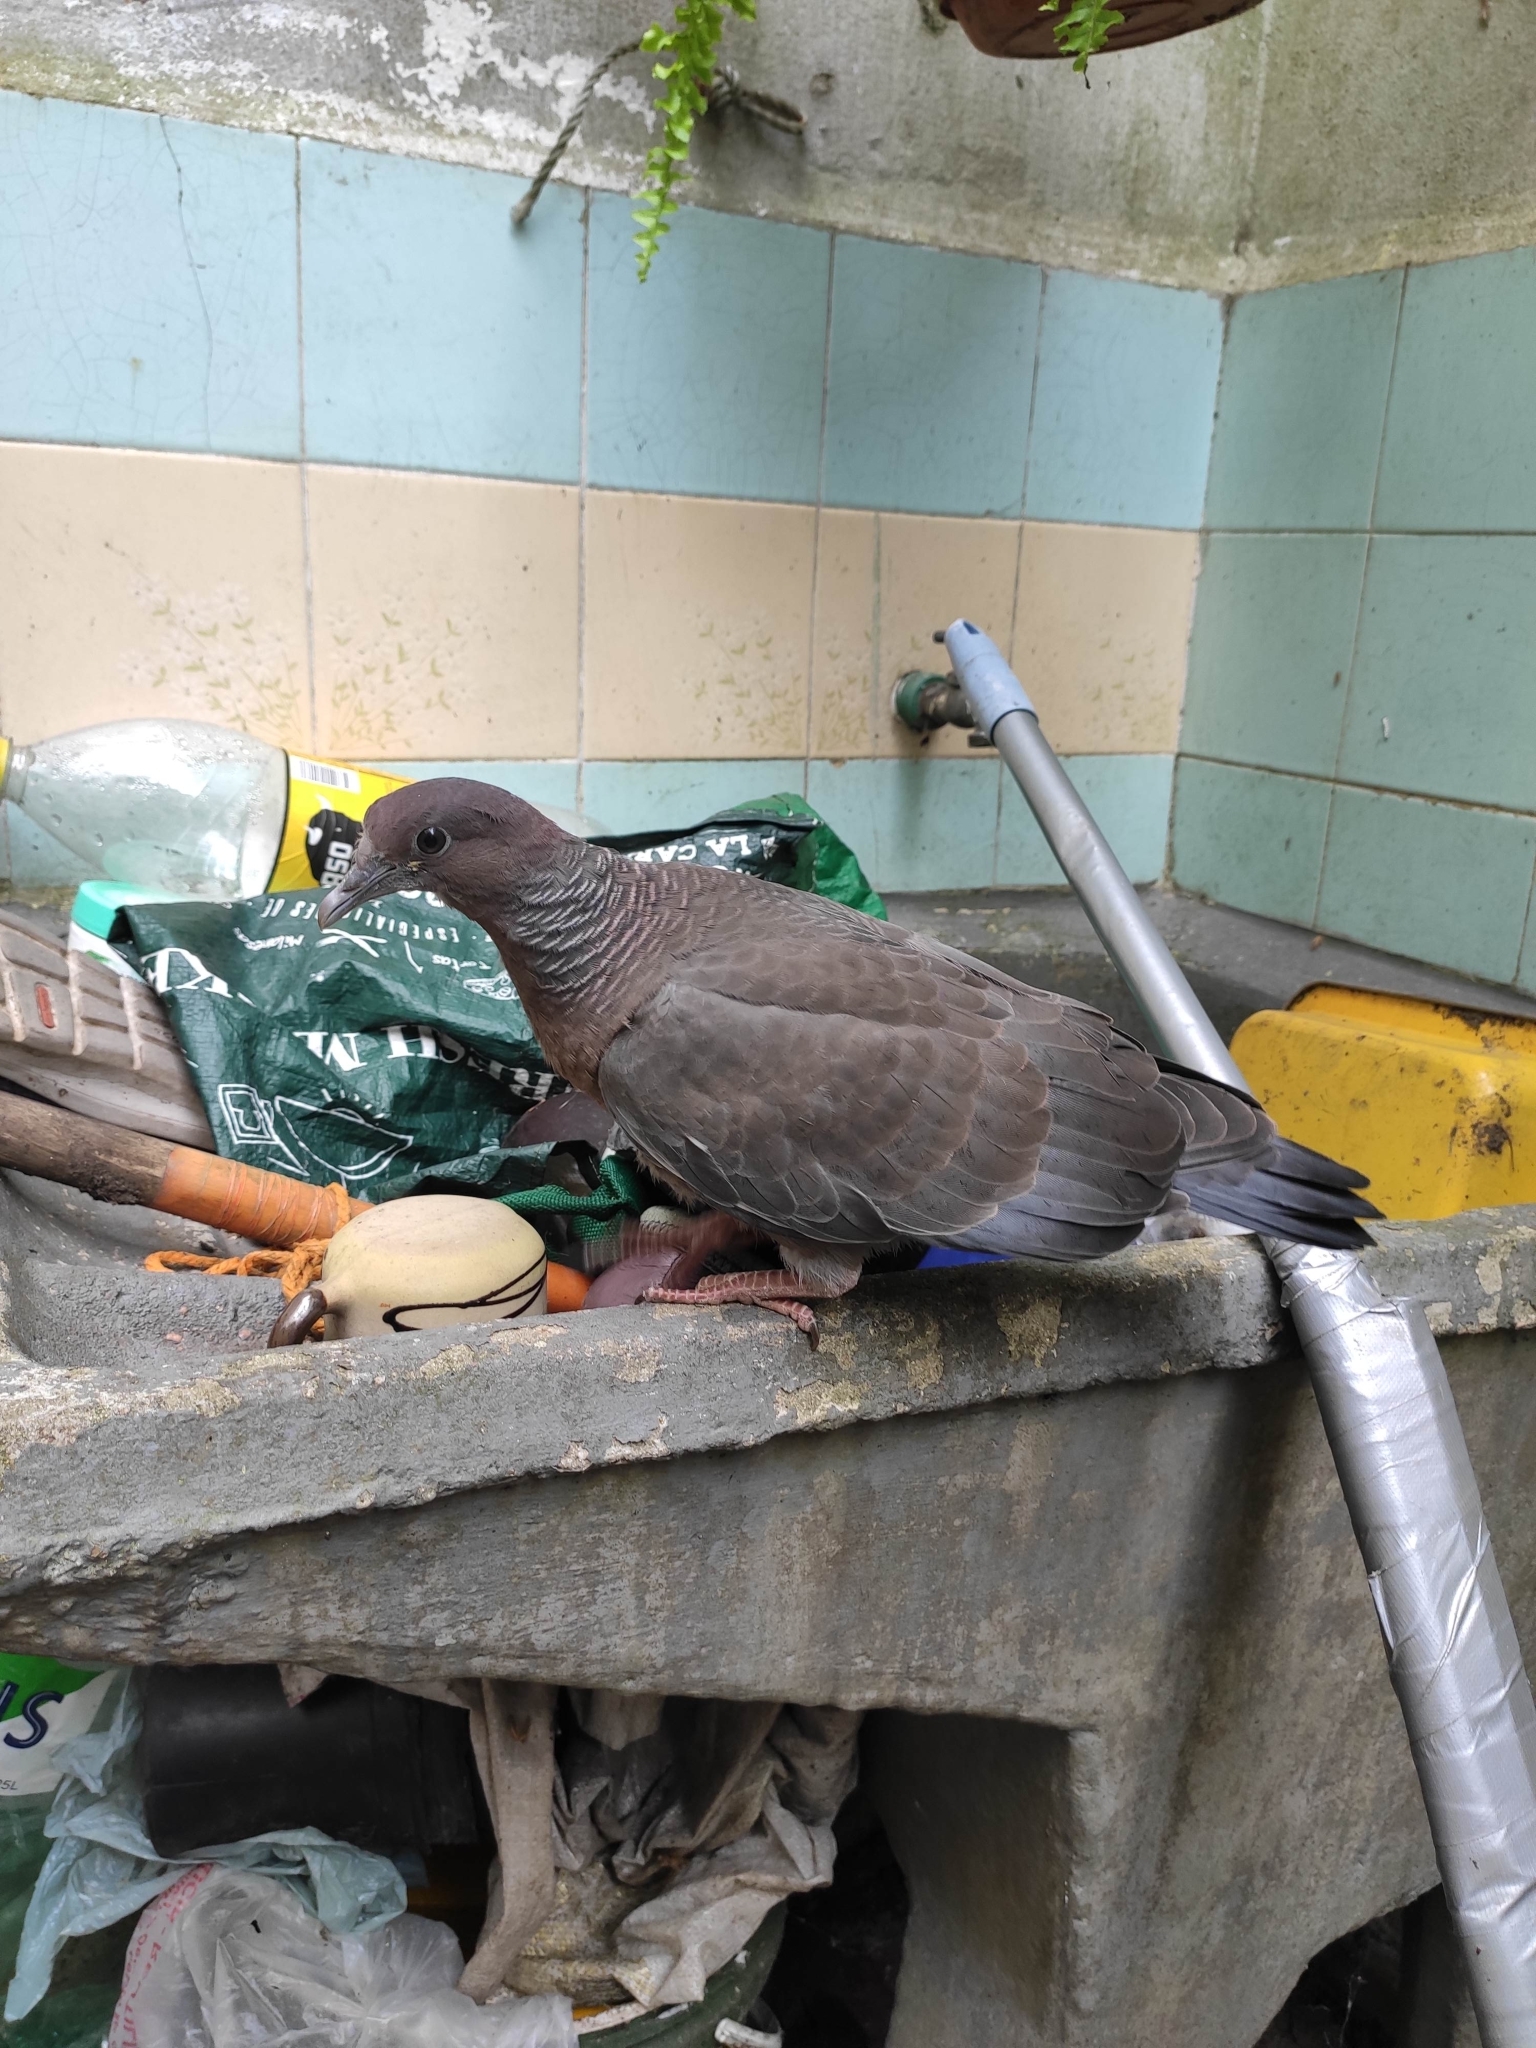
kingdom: Animalia
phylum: Chordata
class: Aves
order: Columbiformes
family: Columbidae
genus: Patagioenas
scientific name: Patagioenas picazuro
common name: Picazuro pigeon
